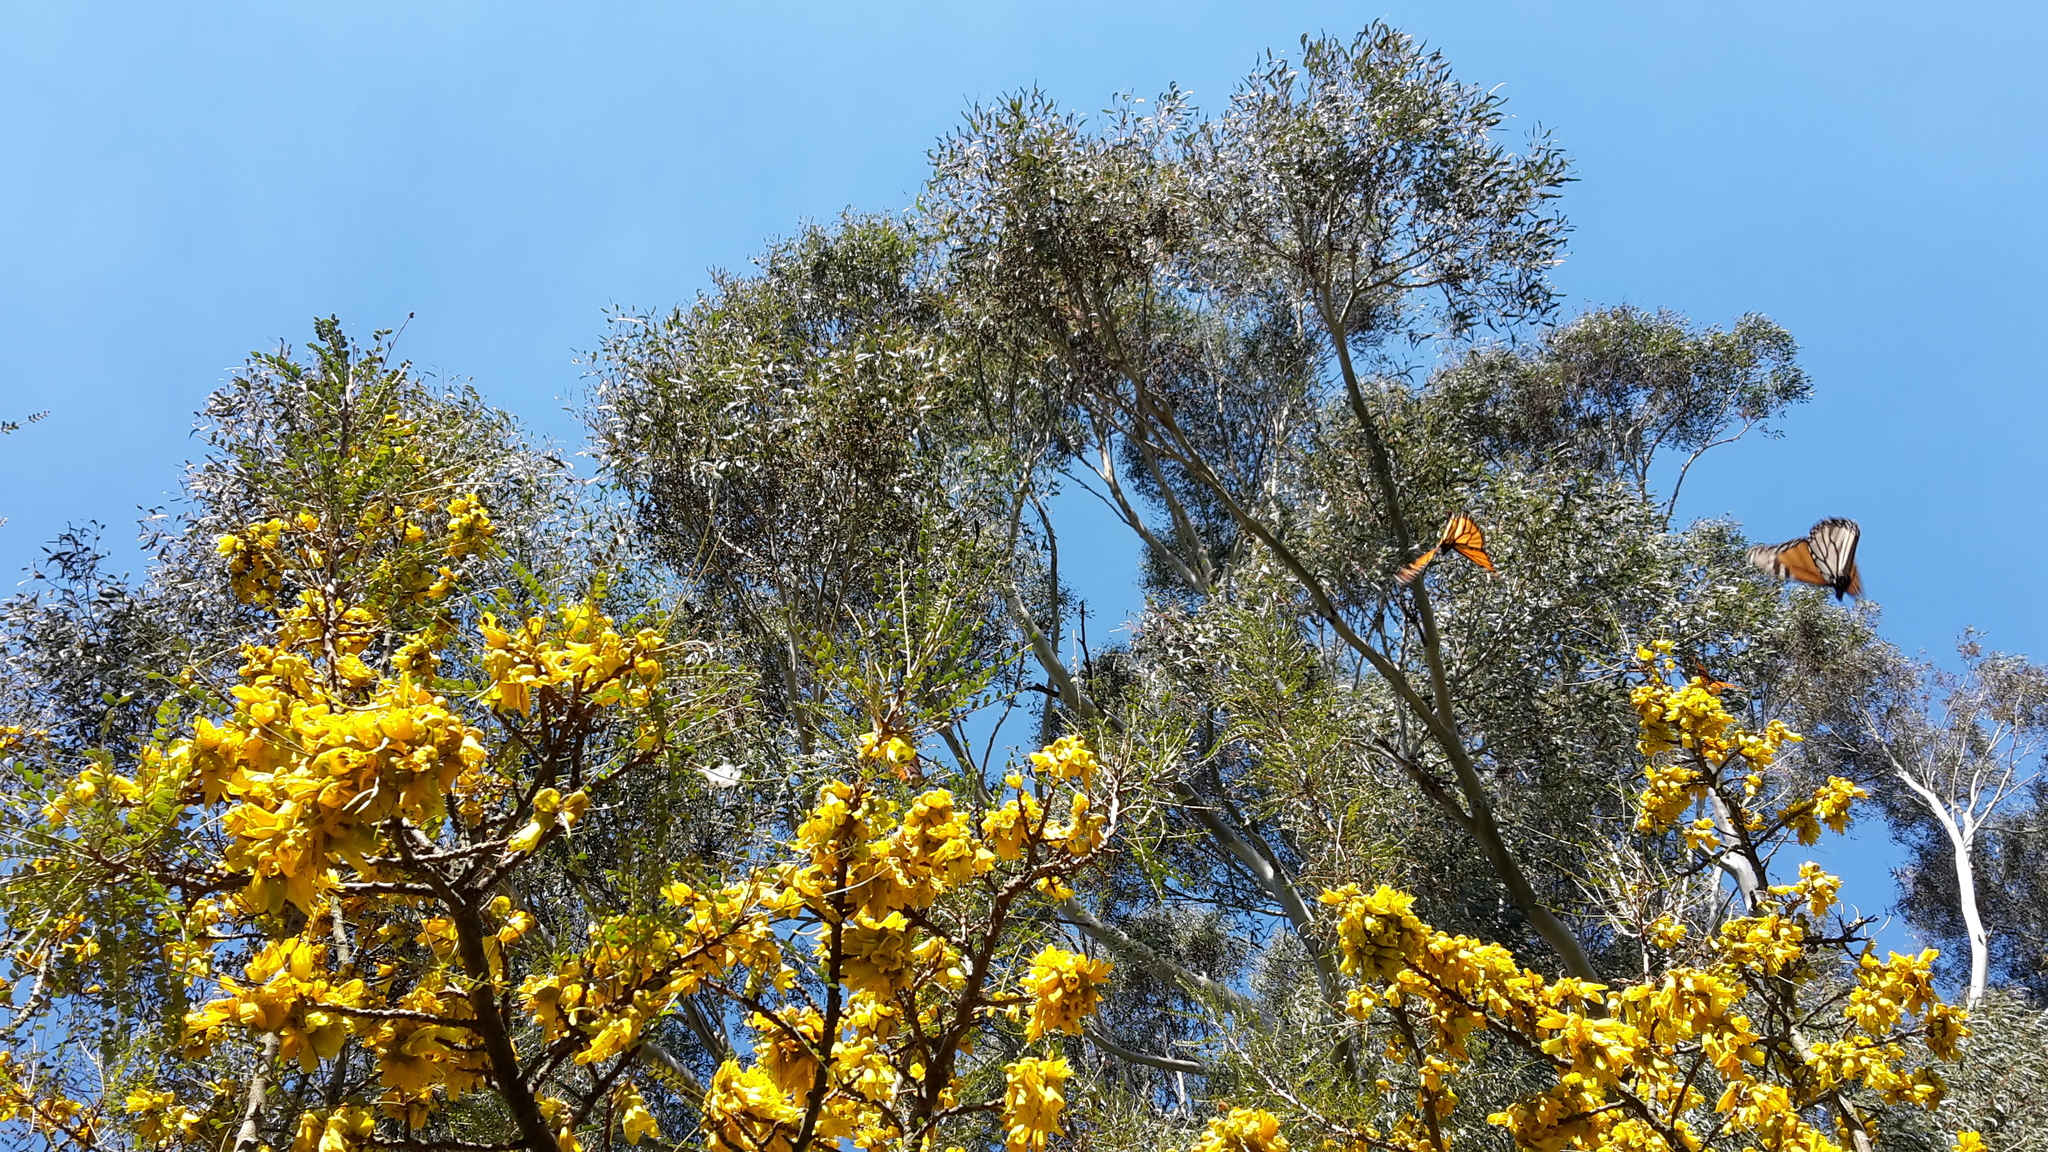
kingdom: Animalia
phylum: Arthropoda
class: Insecta
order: Lepidoptera
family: Nymphalidae
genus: Danaus
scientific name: Danaus plexippus
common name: Monarch
